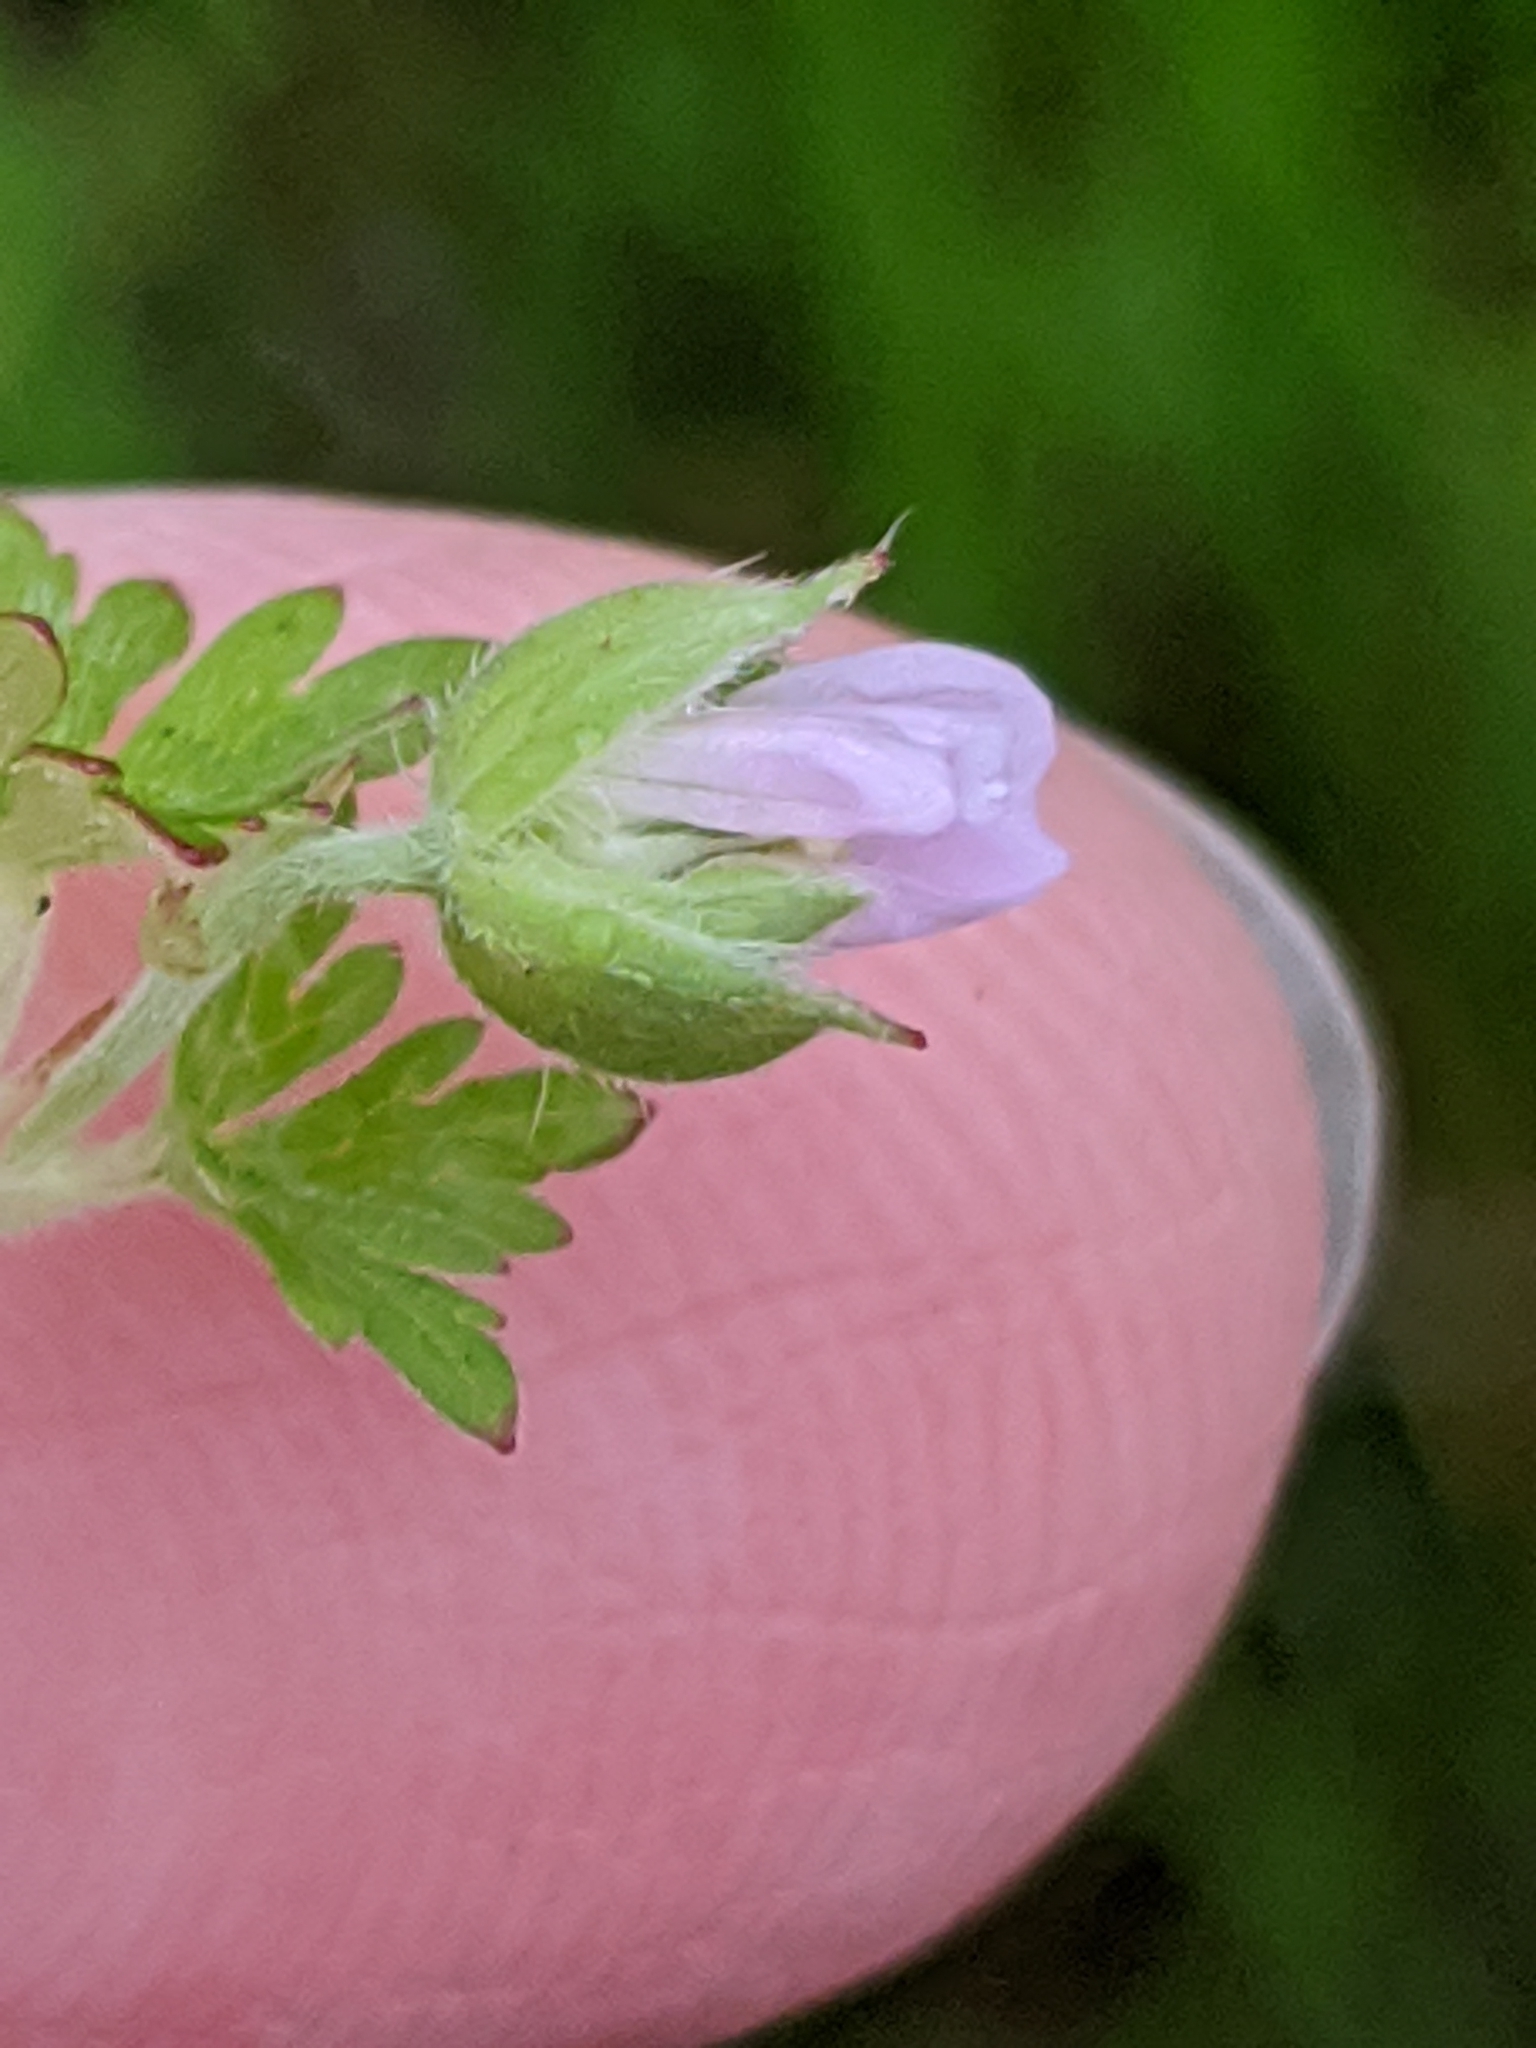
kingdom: Plantae
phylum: Tracheophyta
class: Magnoliopsida
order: Geraniales
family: Geraniaceae
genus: Geranium
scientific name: Geranium carolinianum
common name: Carolina crane's-bill
